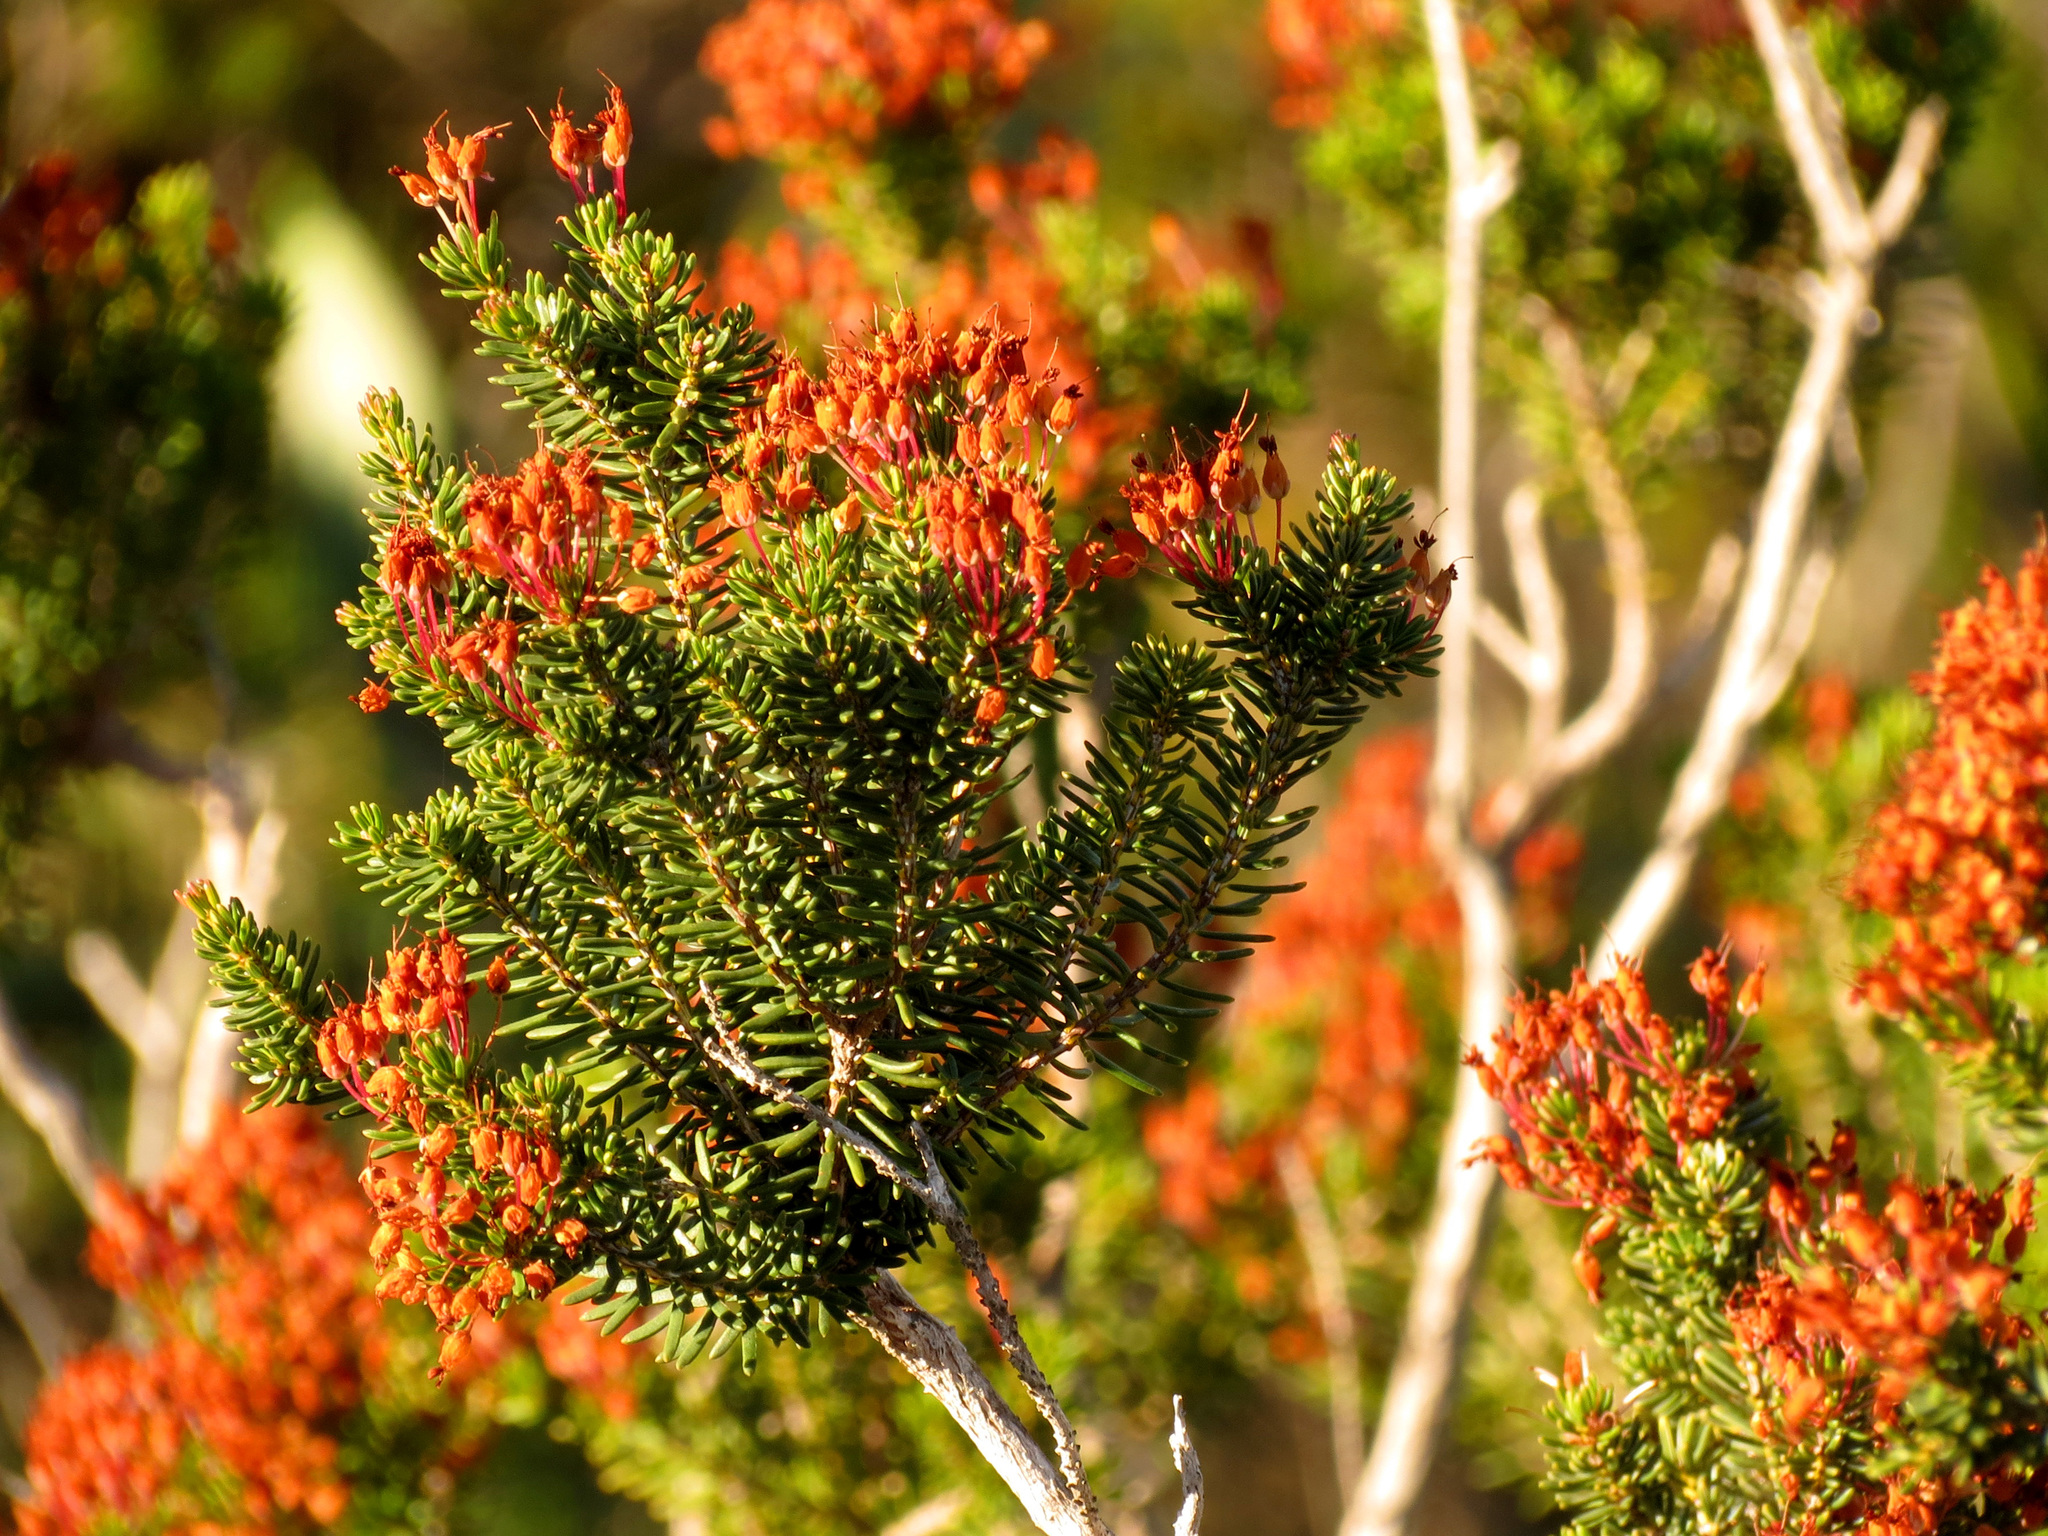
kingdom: Plantae
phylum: Tracheophyta
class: Magnoliopsida
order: Ericales
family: Ericaceae
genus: Erica
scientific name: Erica multiflora
